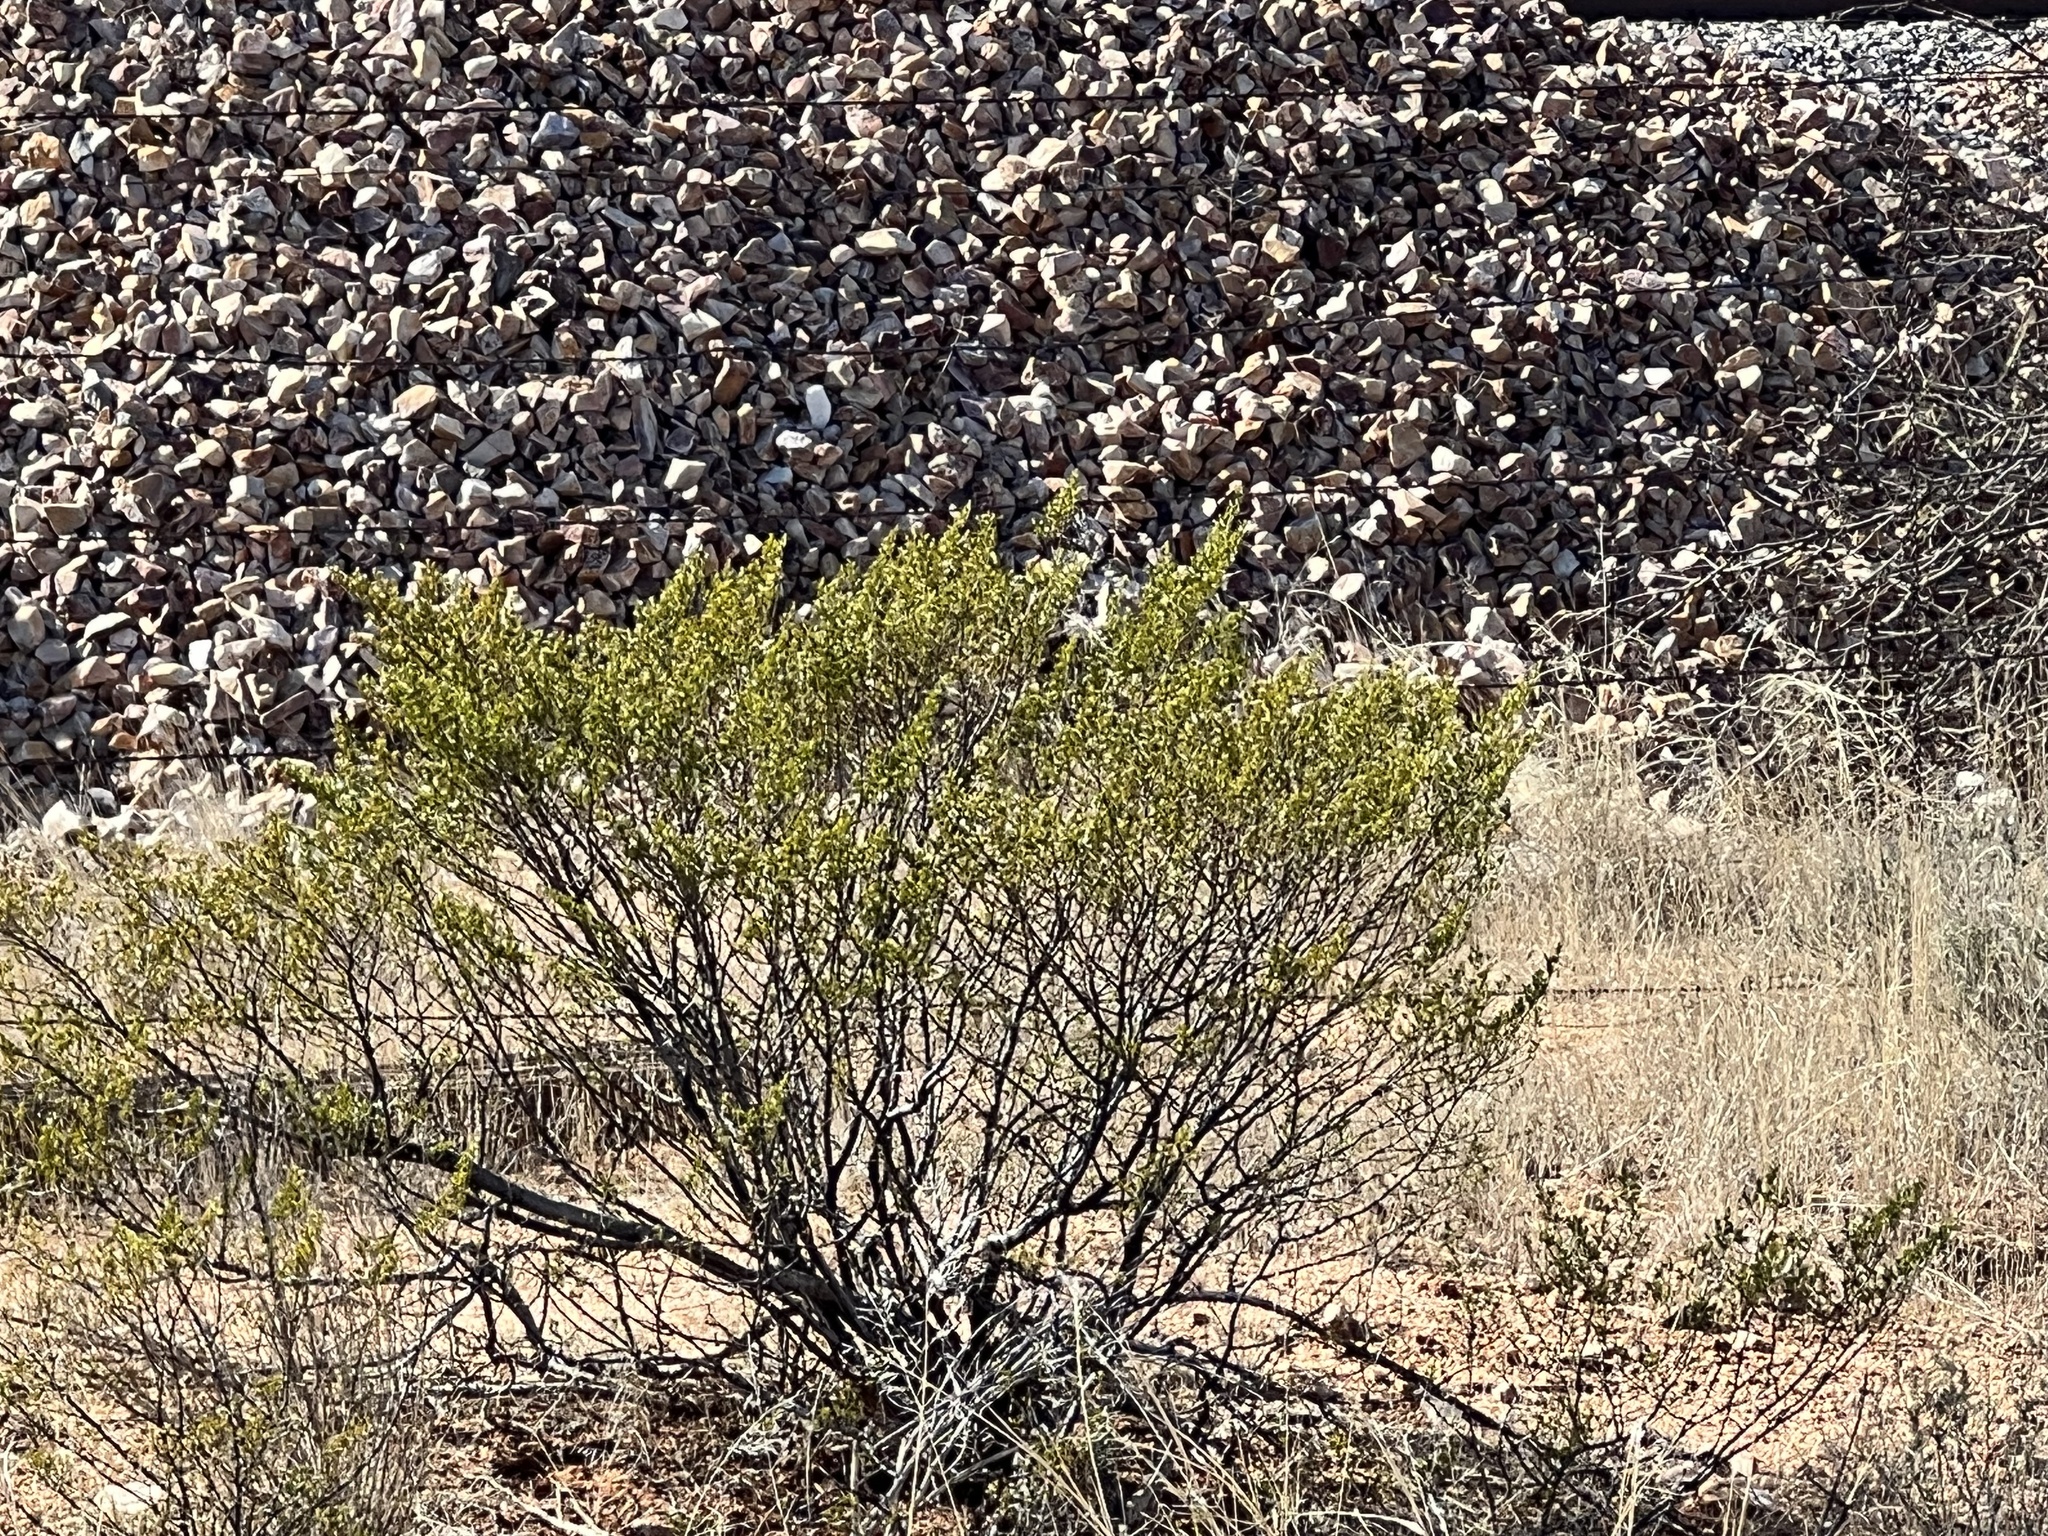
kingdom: Plantae
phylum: Tracheophyta
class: Magnoliopsida
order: Zygophyllales
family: Zygophyllaceae
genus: Larrea
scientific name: Larrea tridentata
